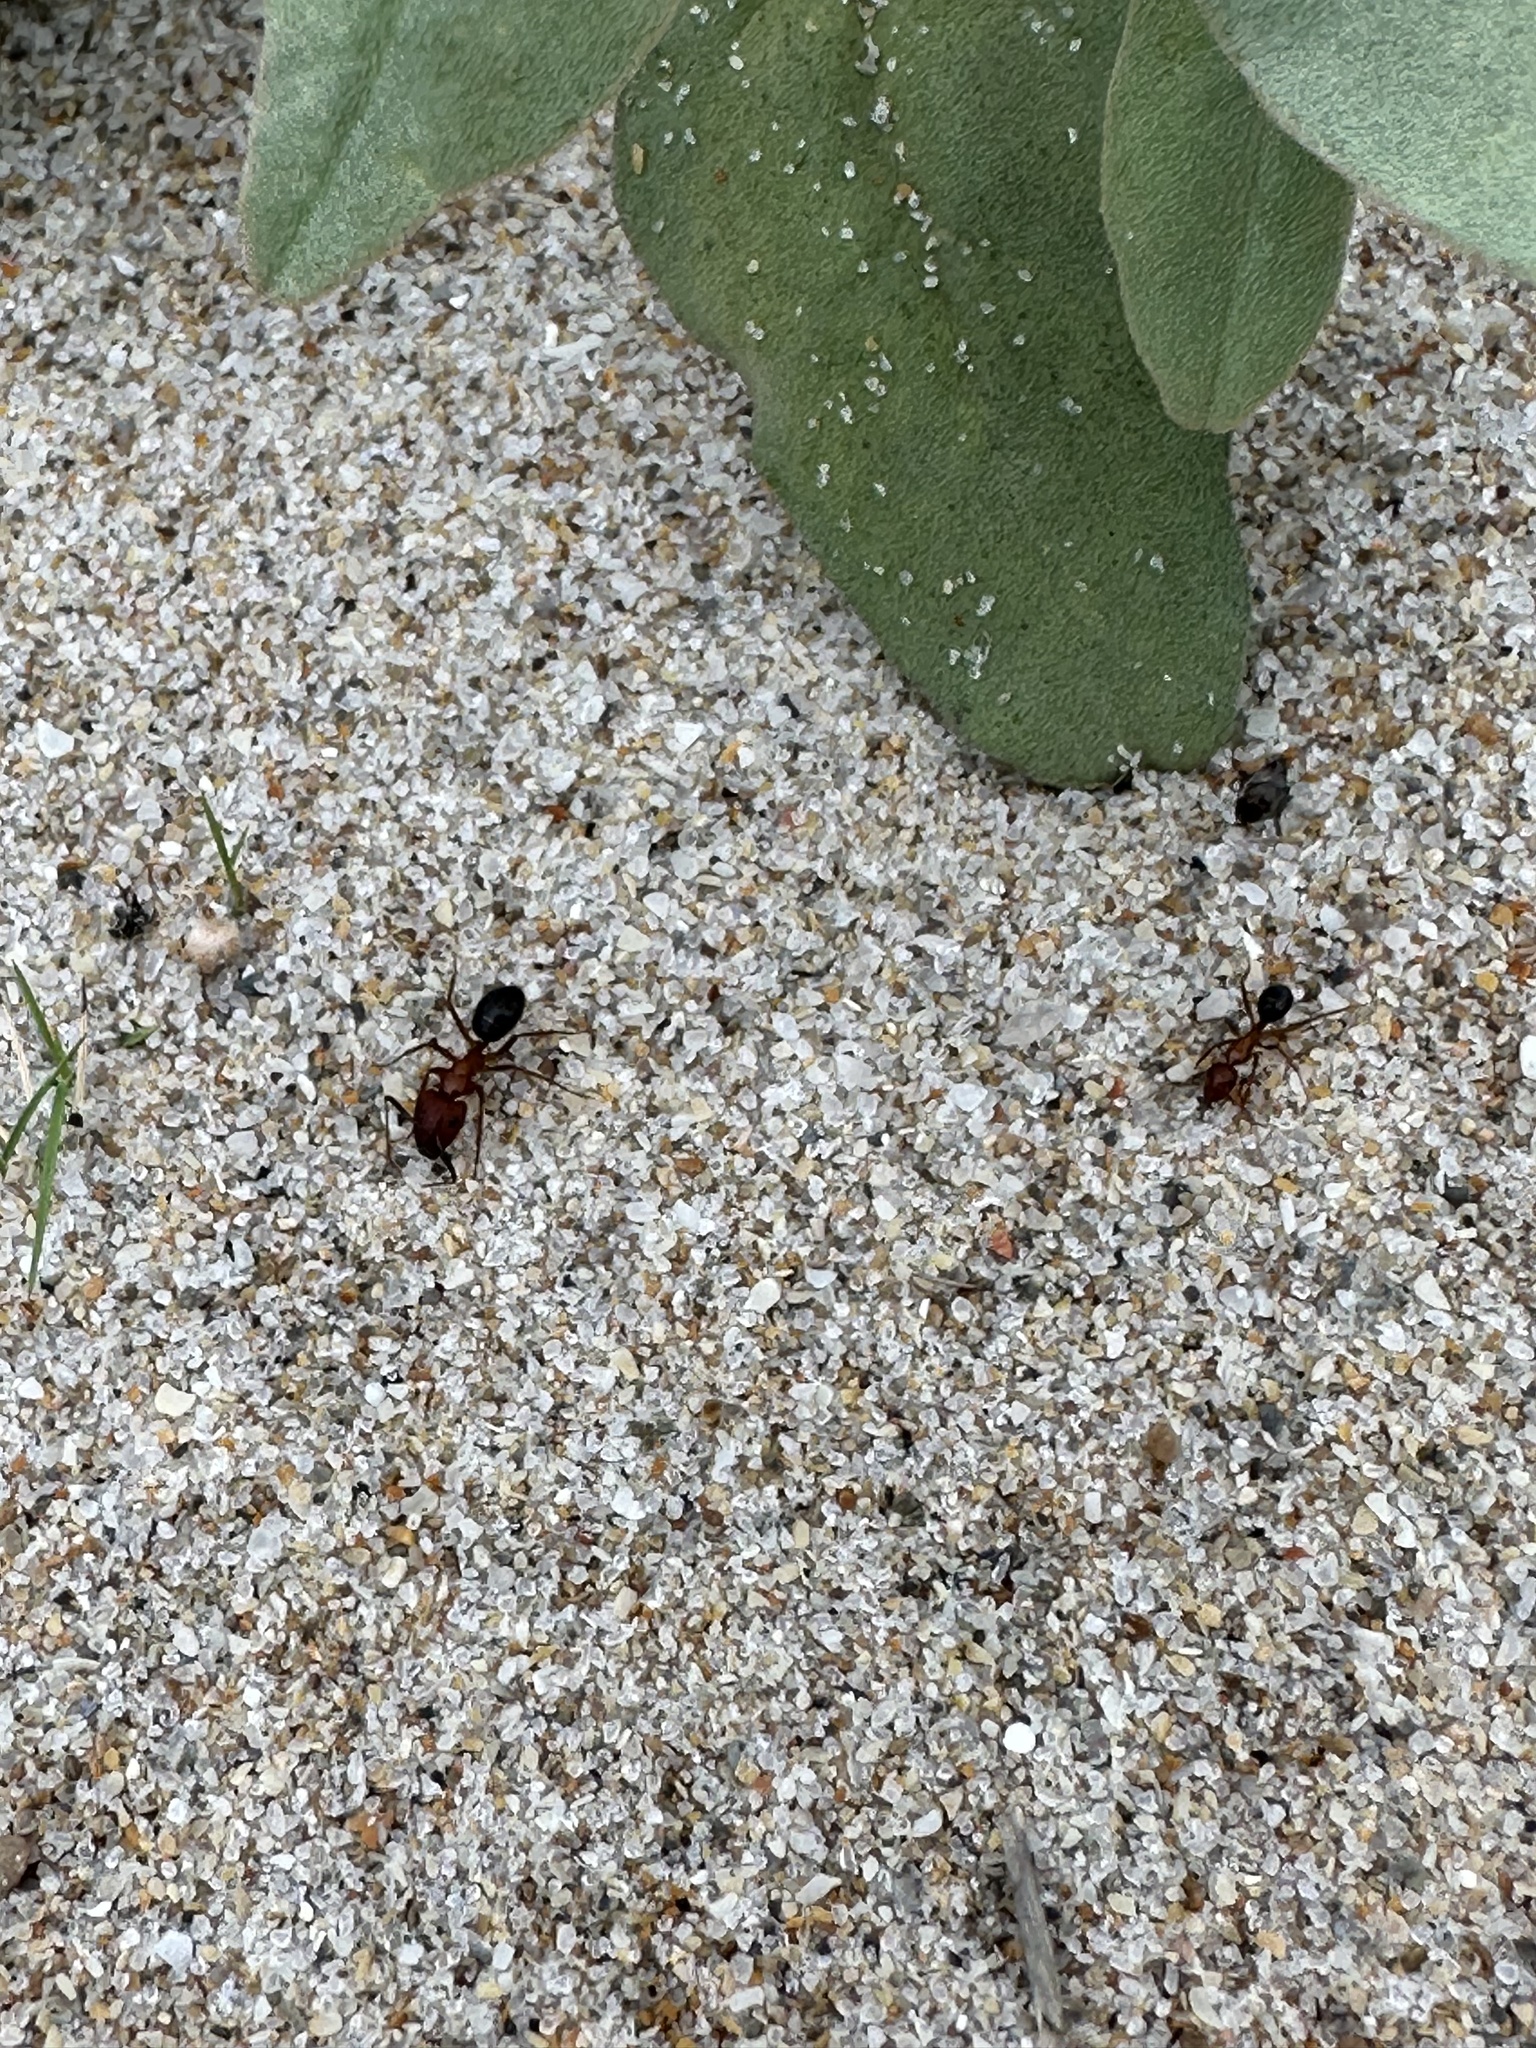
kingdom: Animalia
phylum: Arthropoda
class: Insecta
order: Hymenoptera
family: Formicidae
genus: Camponotus
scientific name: Camponotus floridanus
